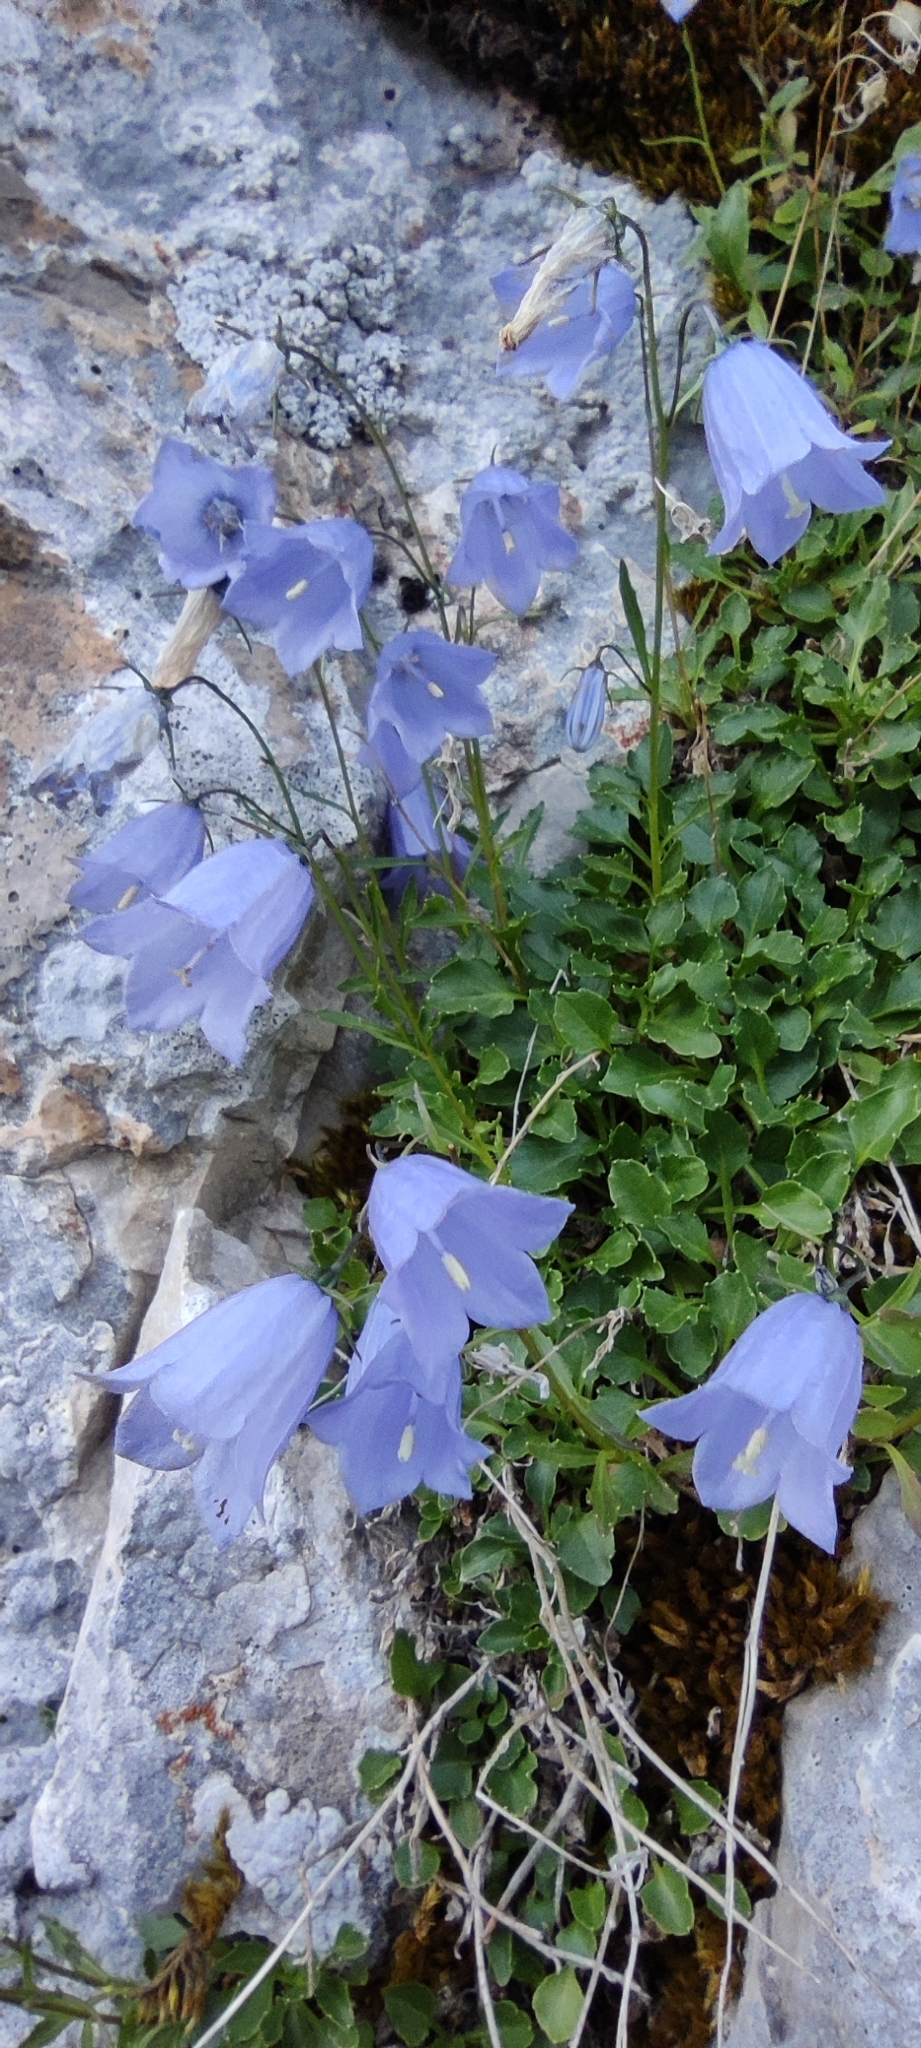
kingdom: Plantae
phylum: Tracheophyta
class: Magnoliopsida
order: Asterales
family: Campanulaceae
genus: Campanula
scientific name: Campanula cochleariifolia
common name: Fairies'-thimbles
